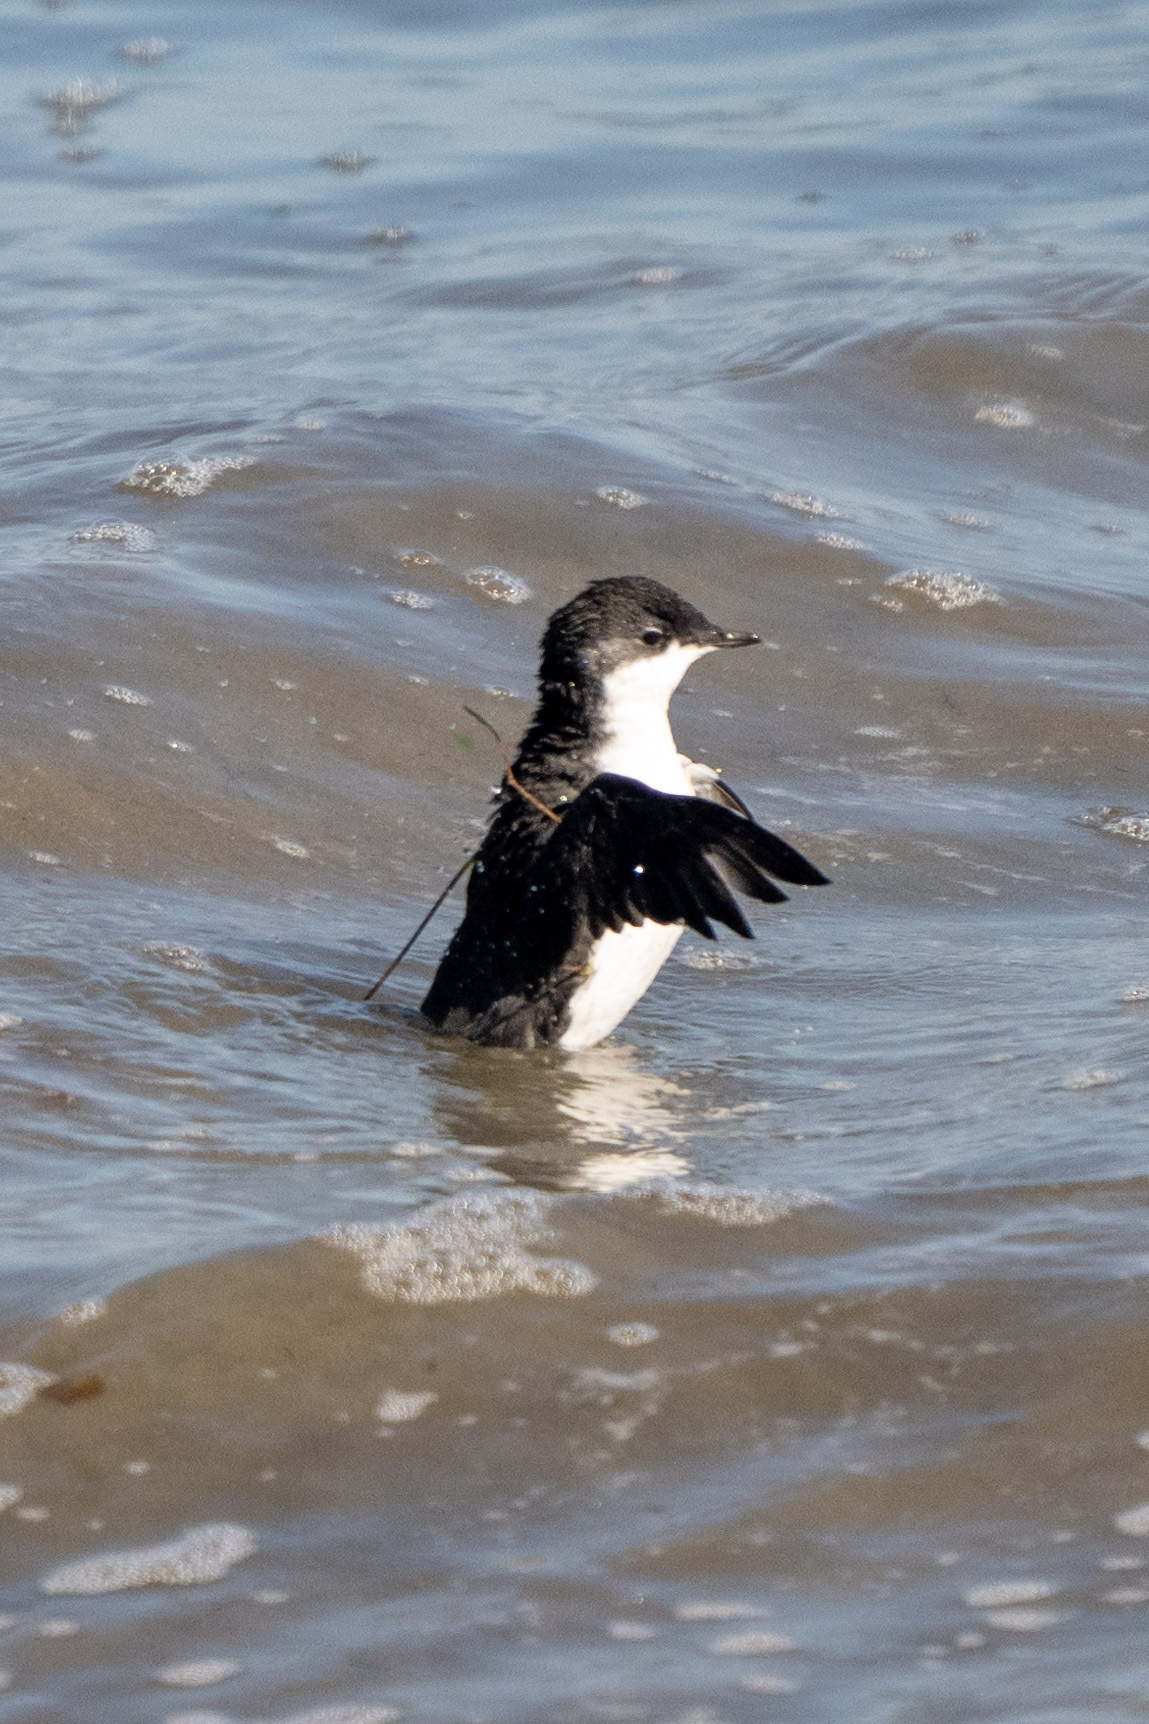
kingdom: Animalia
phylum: Chordata
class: Aves
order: Charadriiformes
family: Alcidae
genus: Synthliboramphus
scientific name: Synthliboramphus scrippsi
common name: Scripps's murrelet
